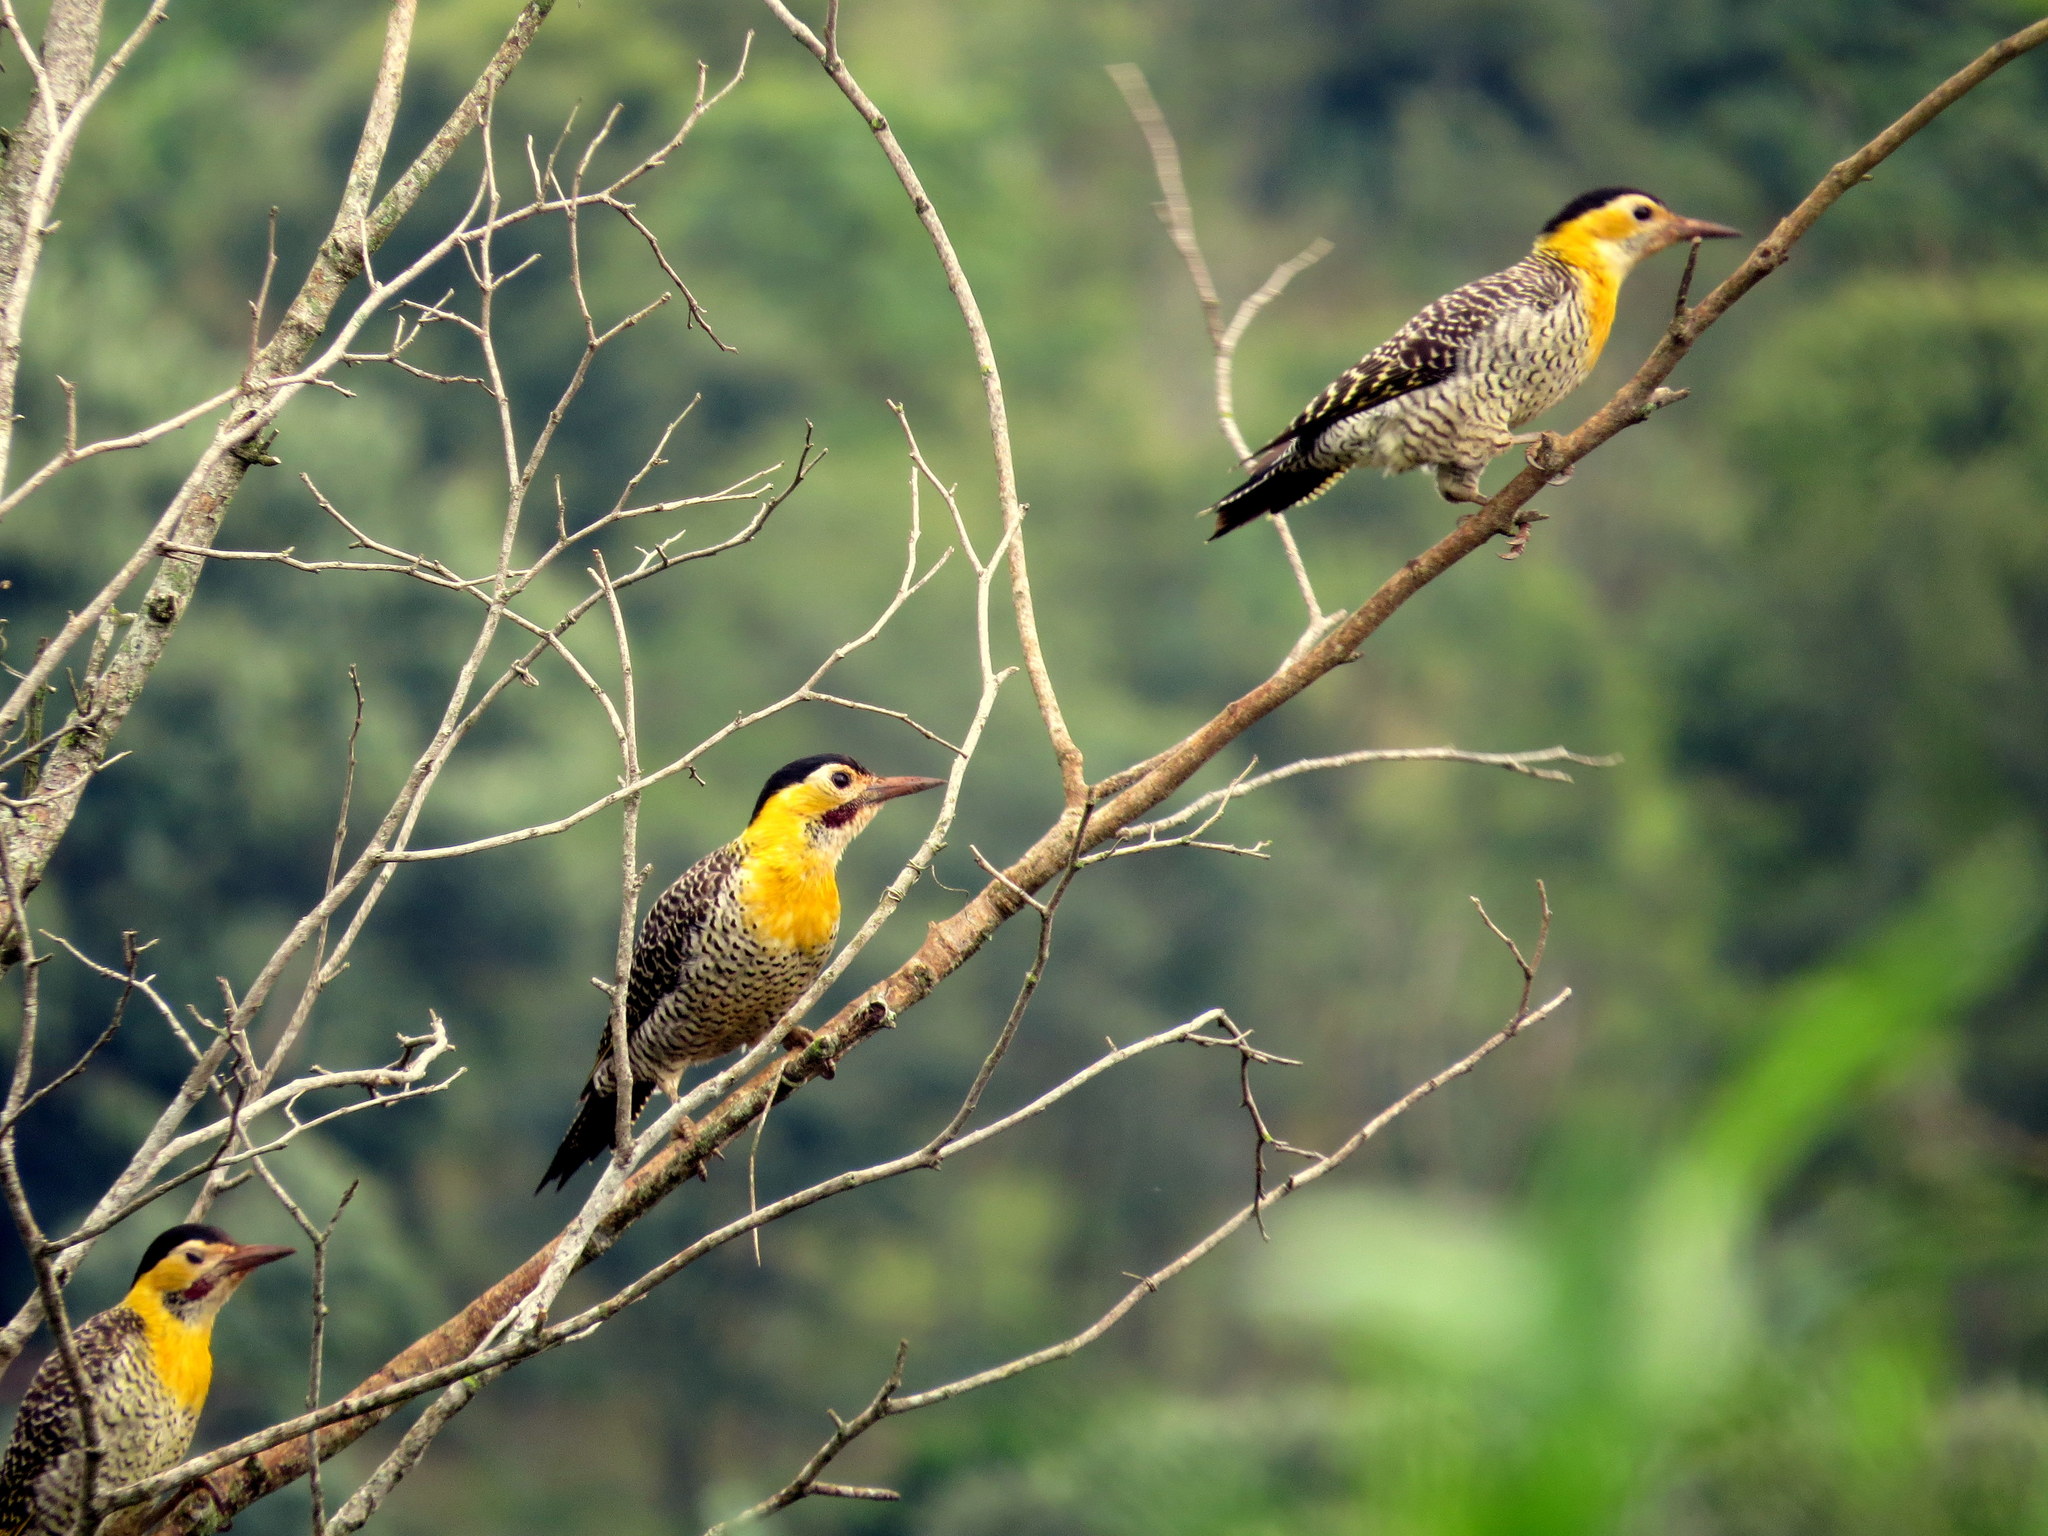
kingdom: Animalia
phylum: Chordata
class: Aves
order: Piciformes
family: Picidae
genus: Colaptes
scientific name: Colaptes campestris
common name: Campo flicker
